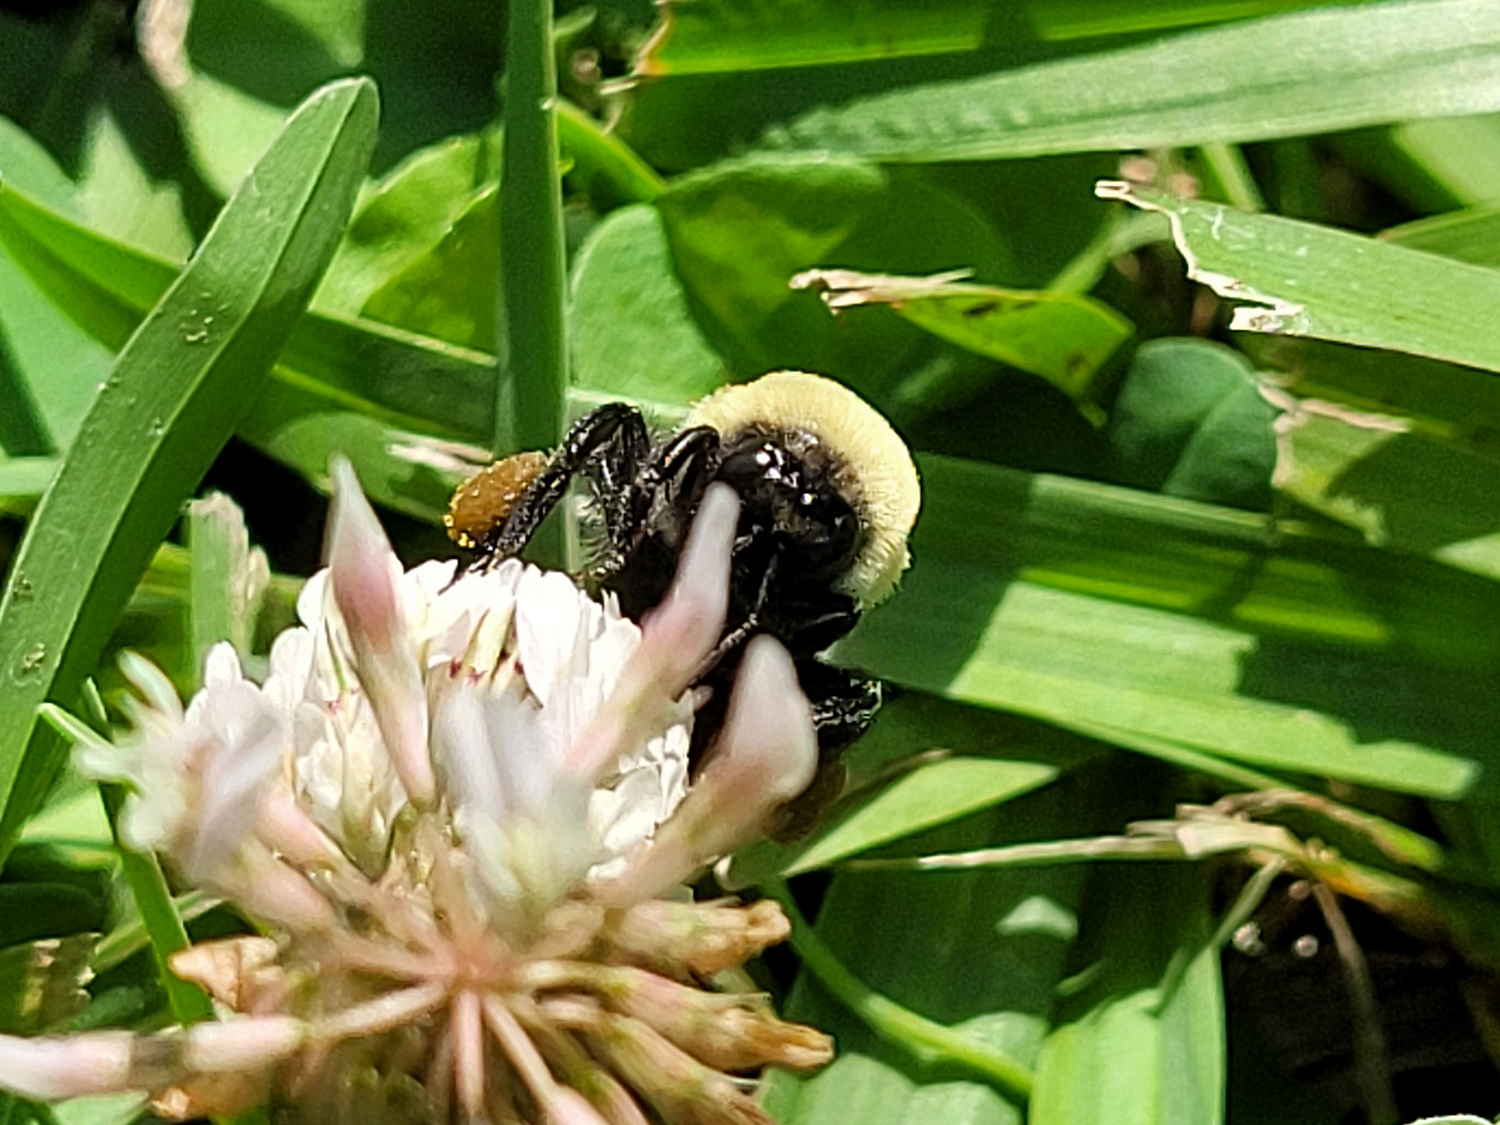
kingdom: Animalia
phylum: Arthropoda
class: Insecta
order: Hymenoptera
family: Apidae
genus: Bombus
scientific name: Bombus griseocollis
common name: Brown-belted bumble bee
